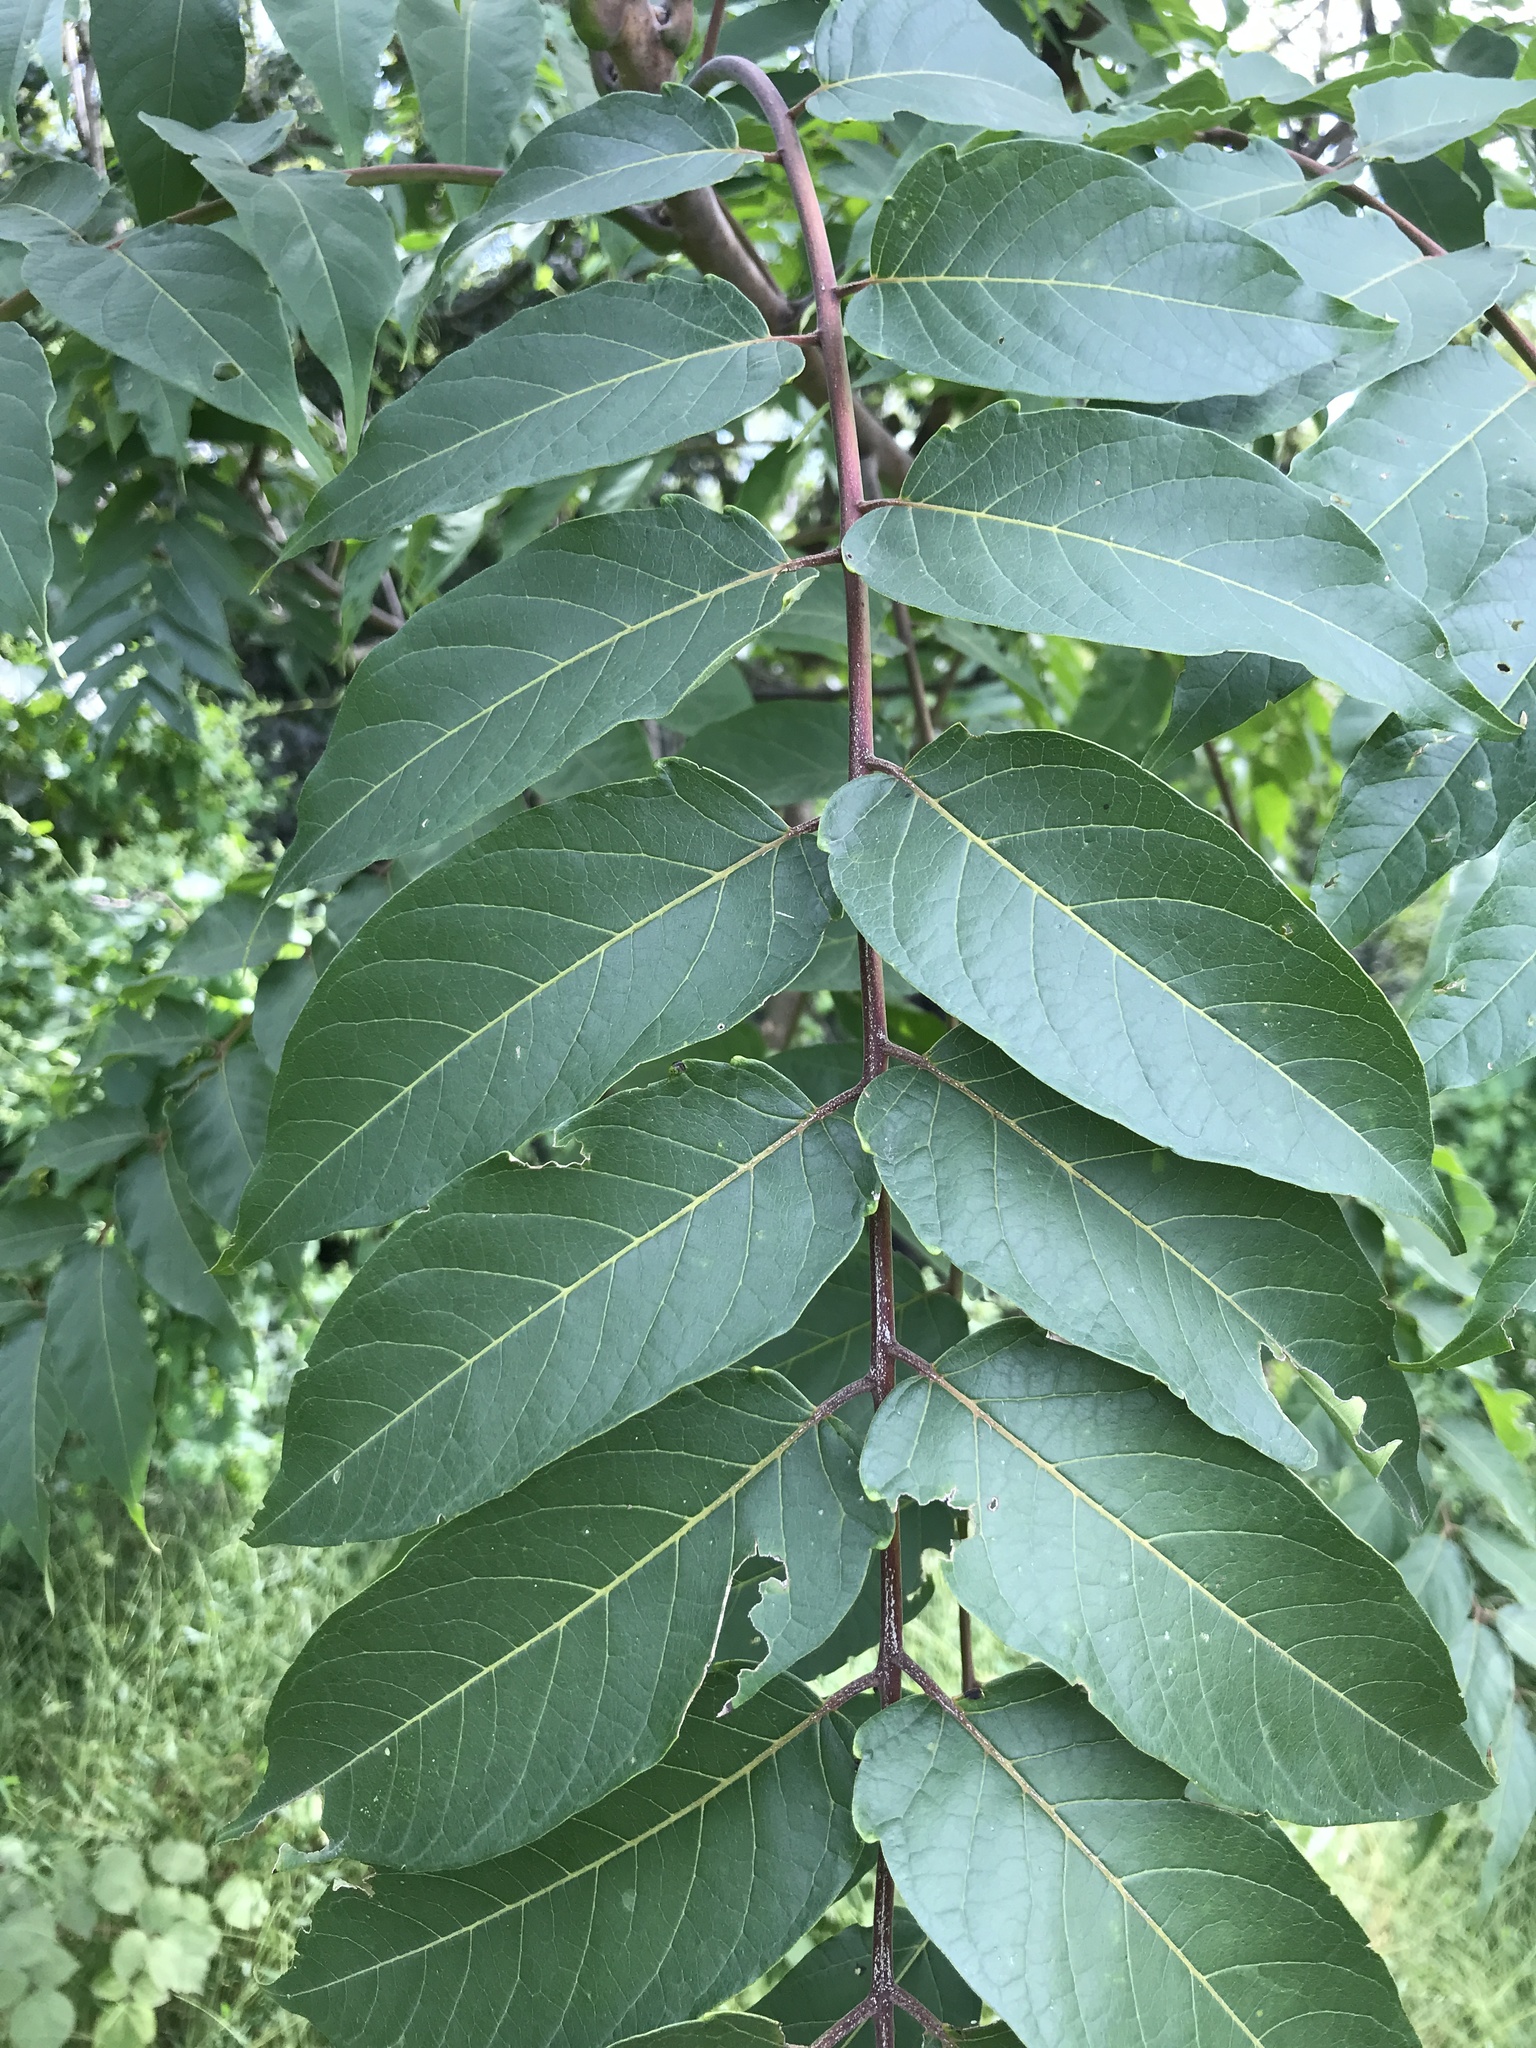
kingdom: Plantae
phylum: Tracheophyta
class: Magnoliopsida
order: Sapindales
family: Simaroubaceae
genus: Ailanthus
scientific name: Ailanthus altissima
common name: Tree-of-heaven
